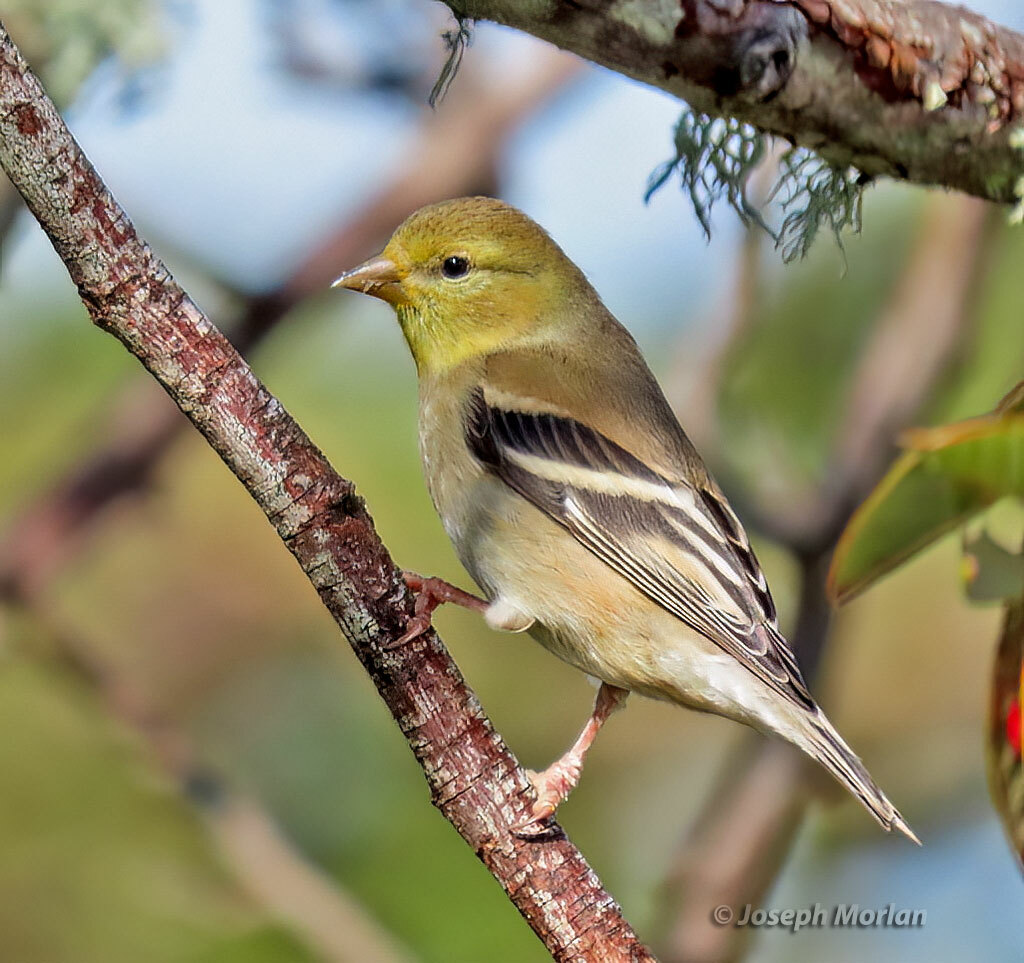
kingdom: Animalia
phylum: Chordata
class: Aves
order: Passeriformes
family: Fringillidae
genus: Spinus
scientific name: Spinus tristis
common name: American goldfinch
